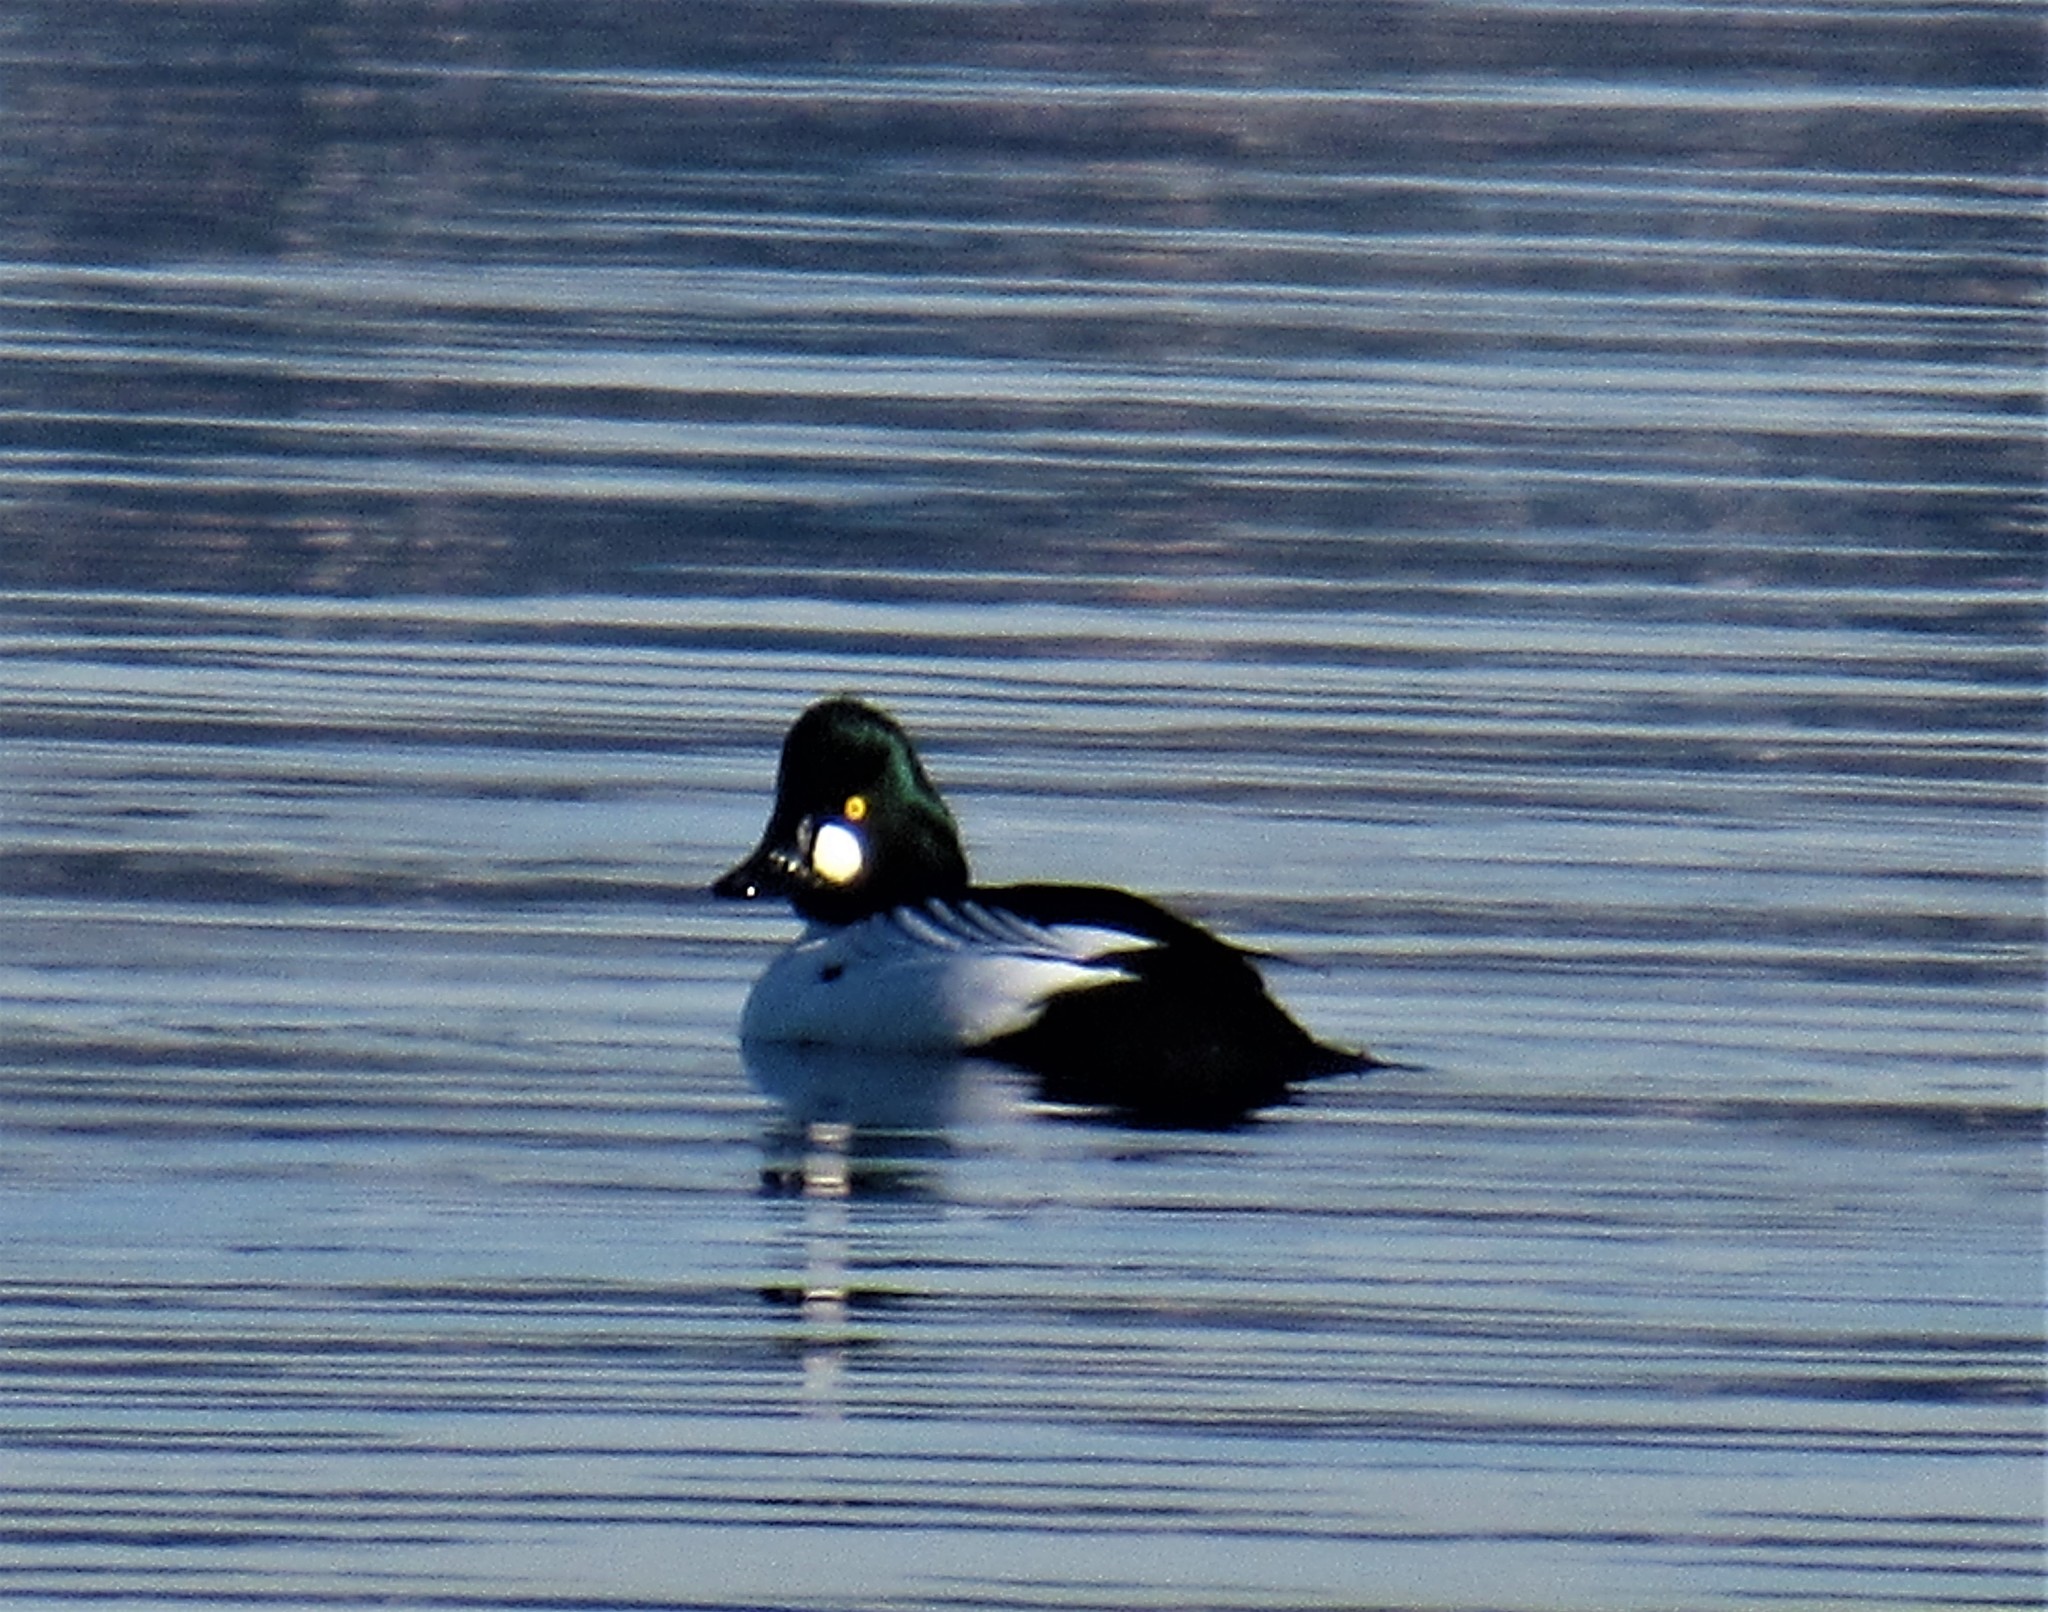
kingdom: Animalia
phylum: Chordata
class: Aves
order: Anseriformes
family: Anatidae
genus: Bucephala
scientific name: Bucephala clangula
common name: Common goldeneye
